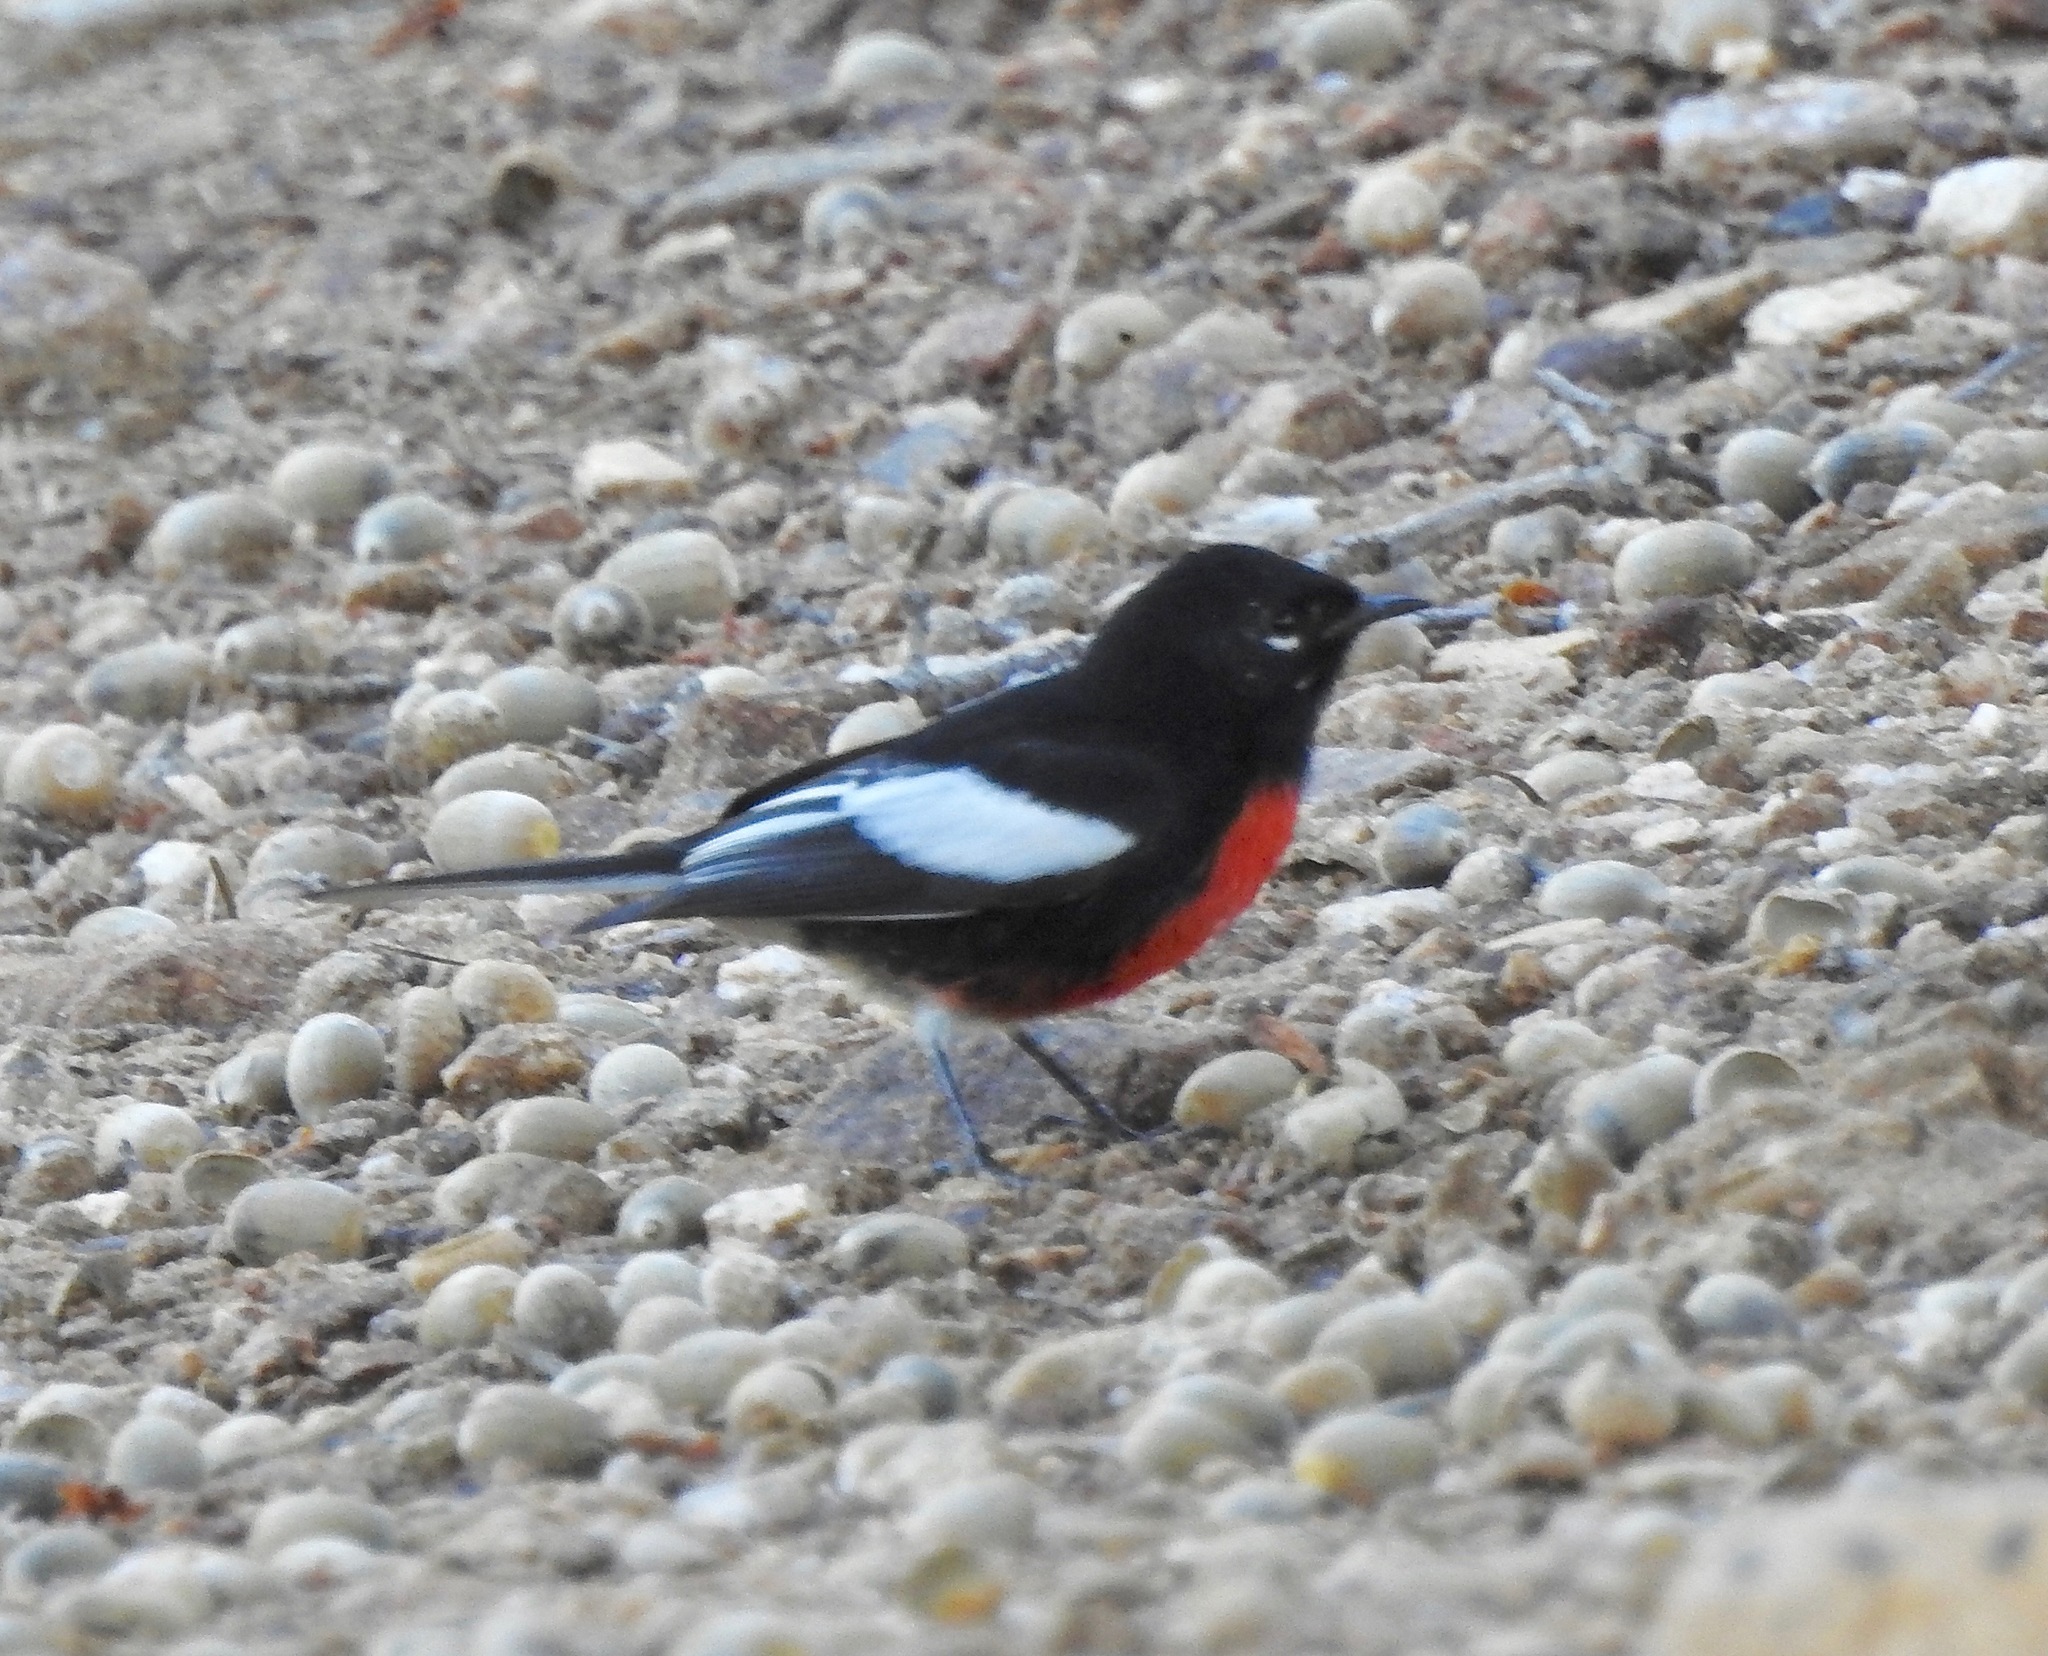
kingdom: Animalia
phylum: Chordata
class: Aves
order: Passeriformes
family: Parulidae
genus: Myioborus
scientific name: Myioborus pictus
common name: Painted whitestart
